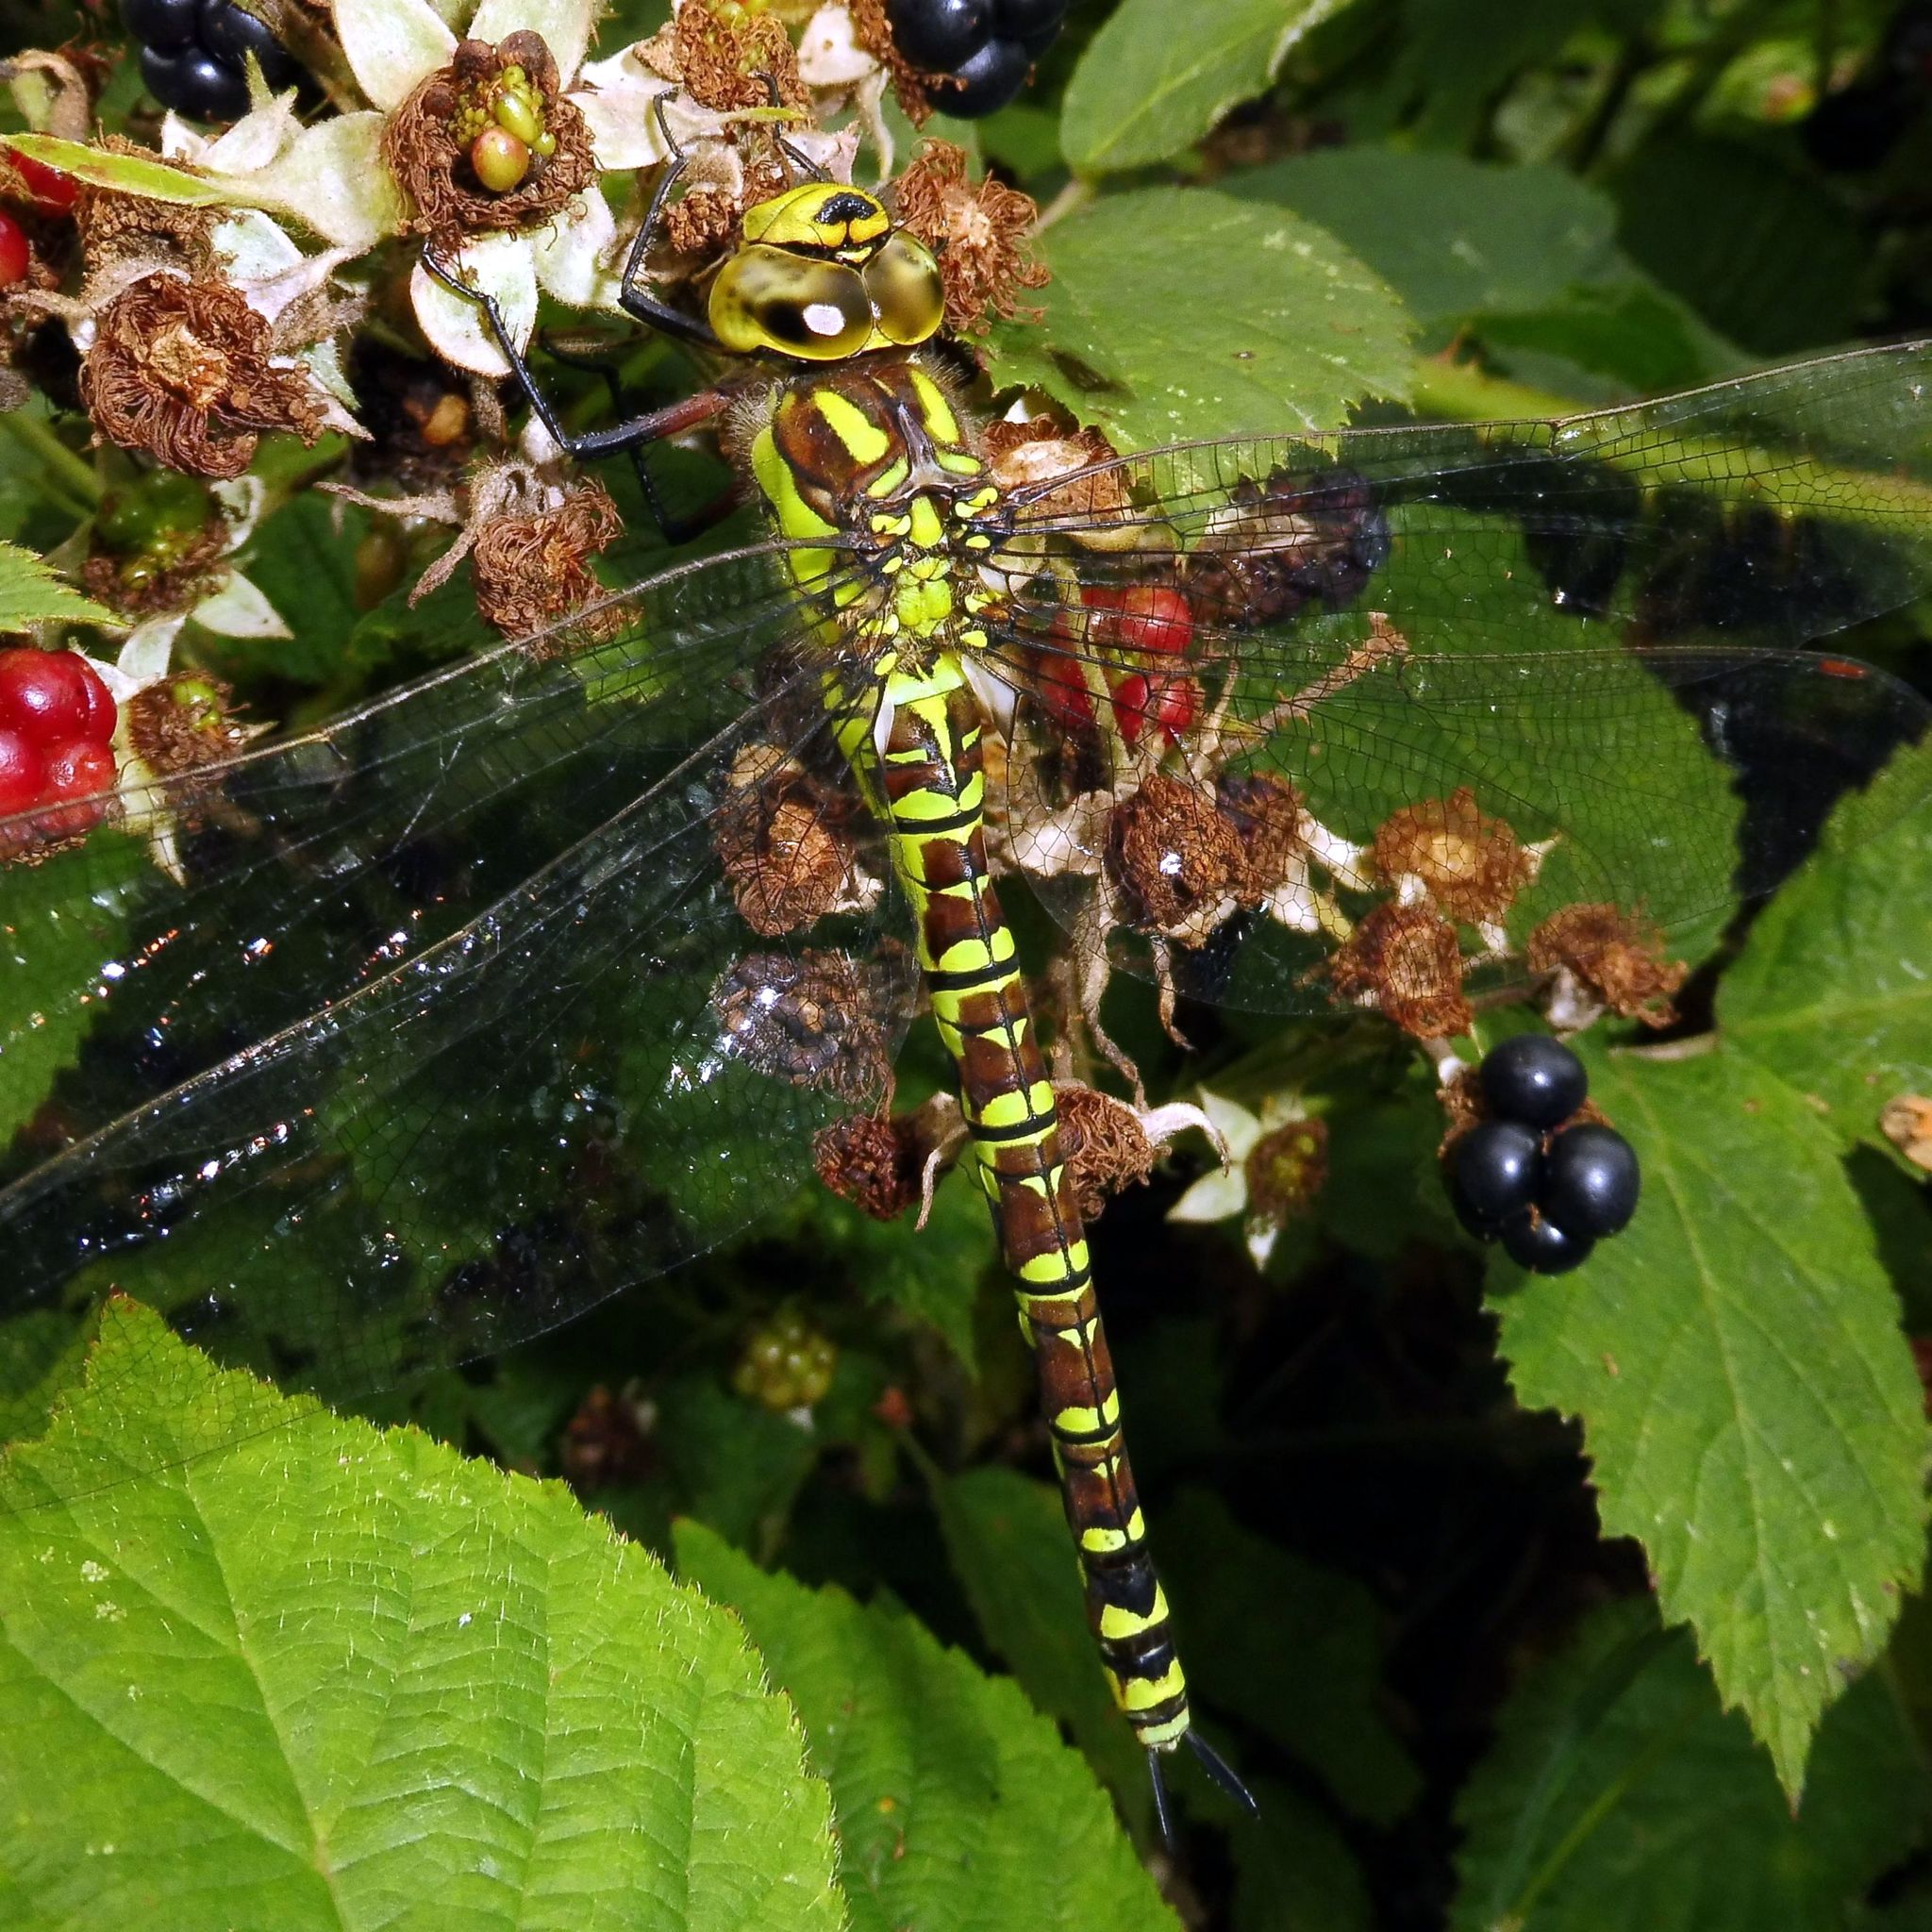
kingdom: Animalia
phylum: Arthropoda
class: Insecta
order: Odonata
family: Aeshnidae
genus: Aeshna
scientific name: Aeshna cyanea
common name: Southern hawker
